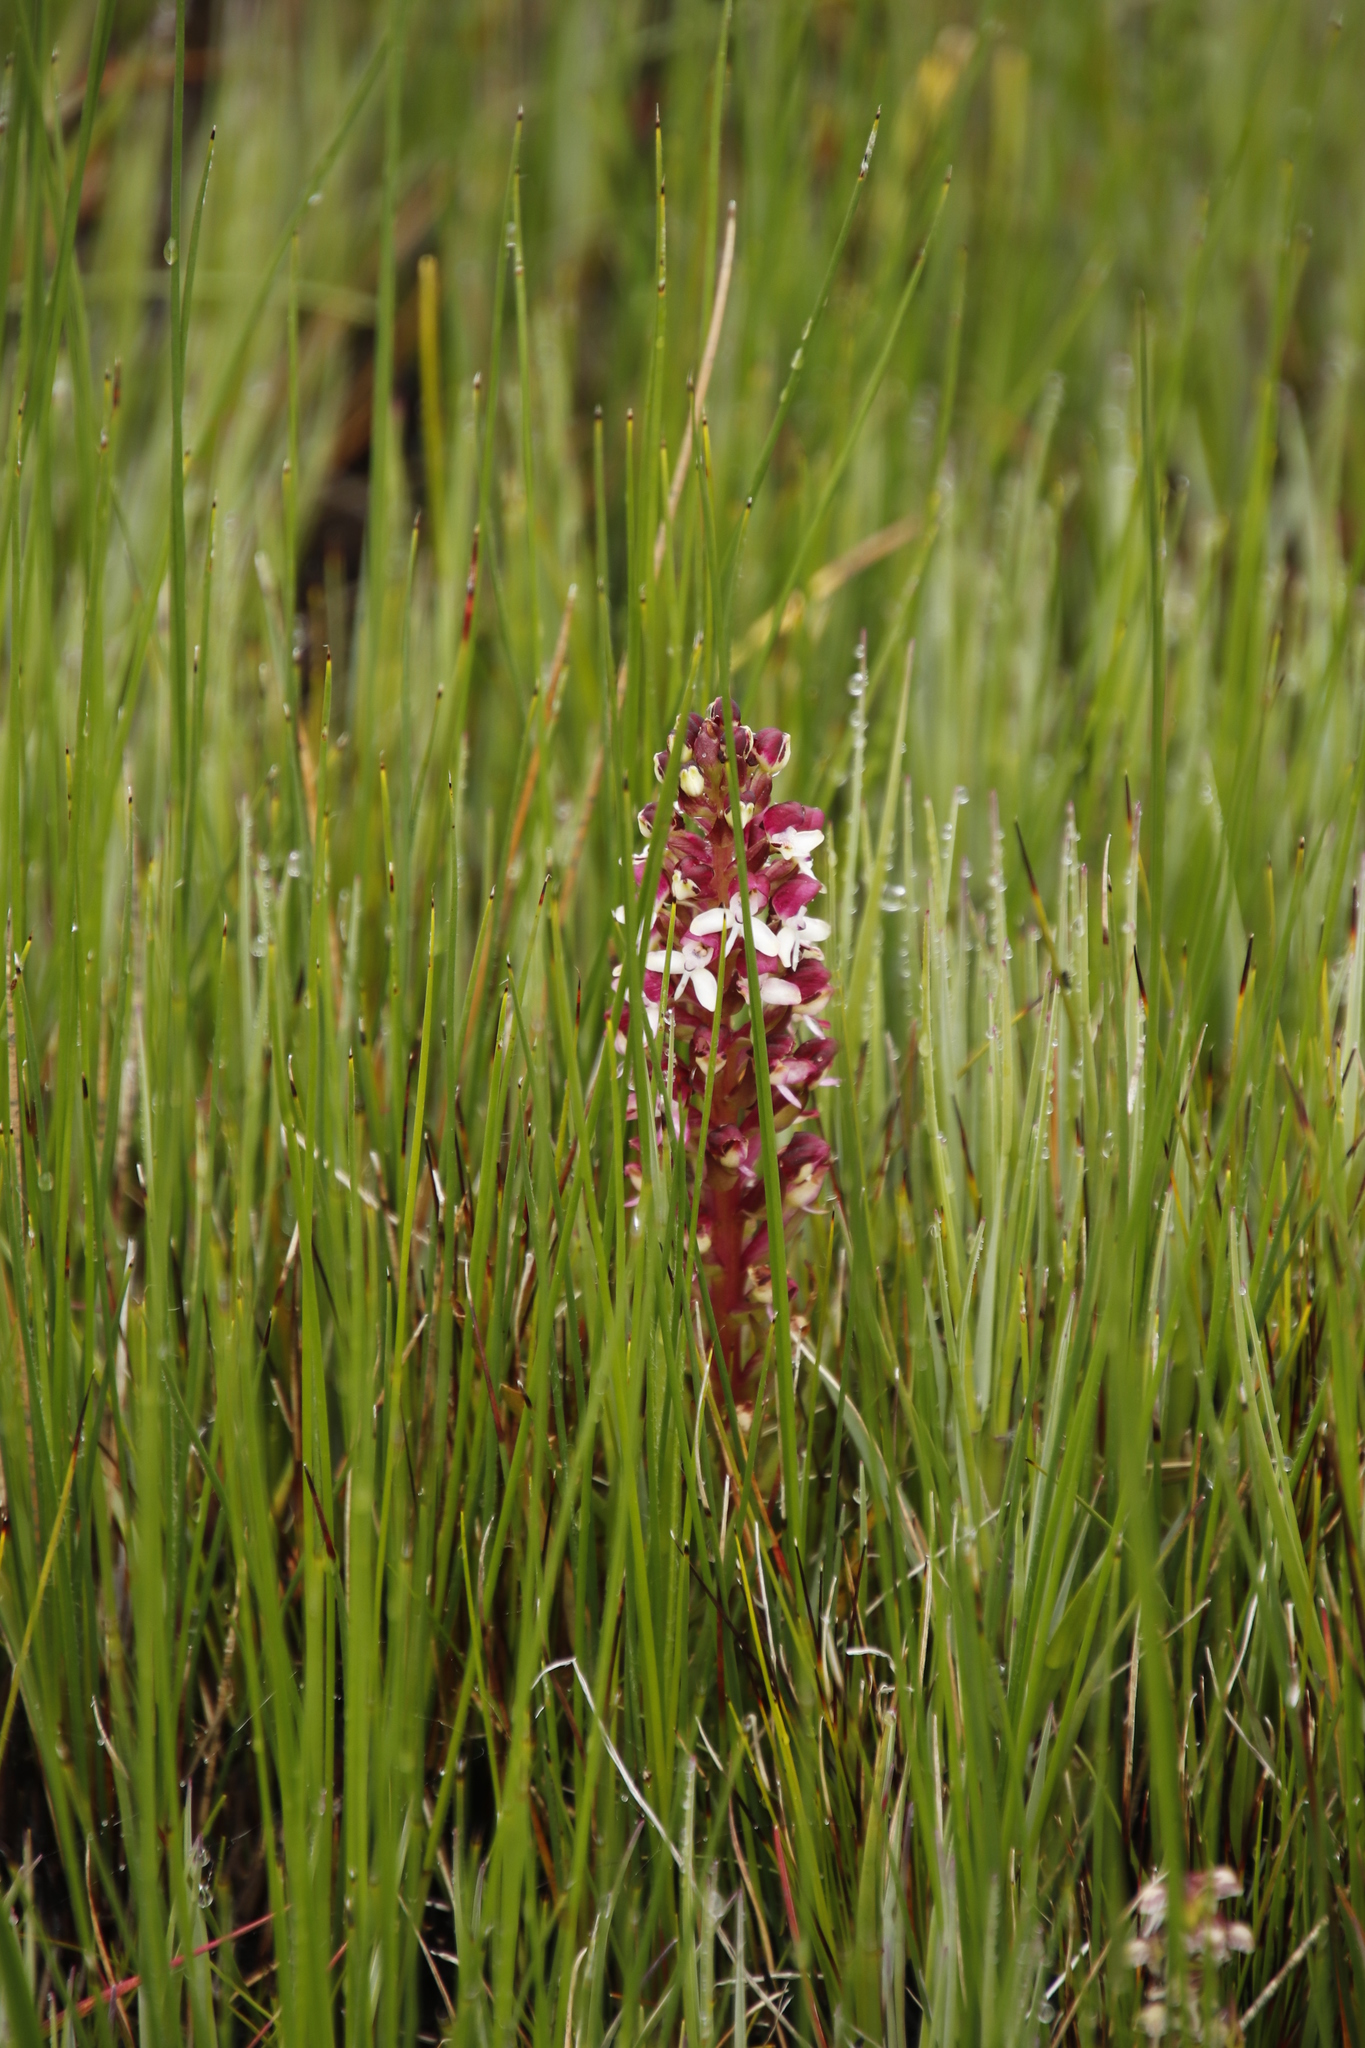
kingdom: Plantae
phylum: Tracheophyta
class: Liliopsida
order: Asparagales
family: Orchidaceae
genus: Disa
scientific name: Disa albomagentea
